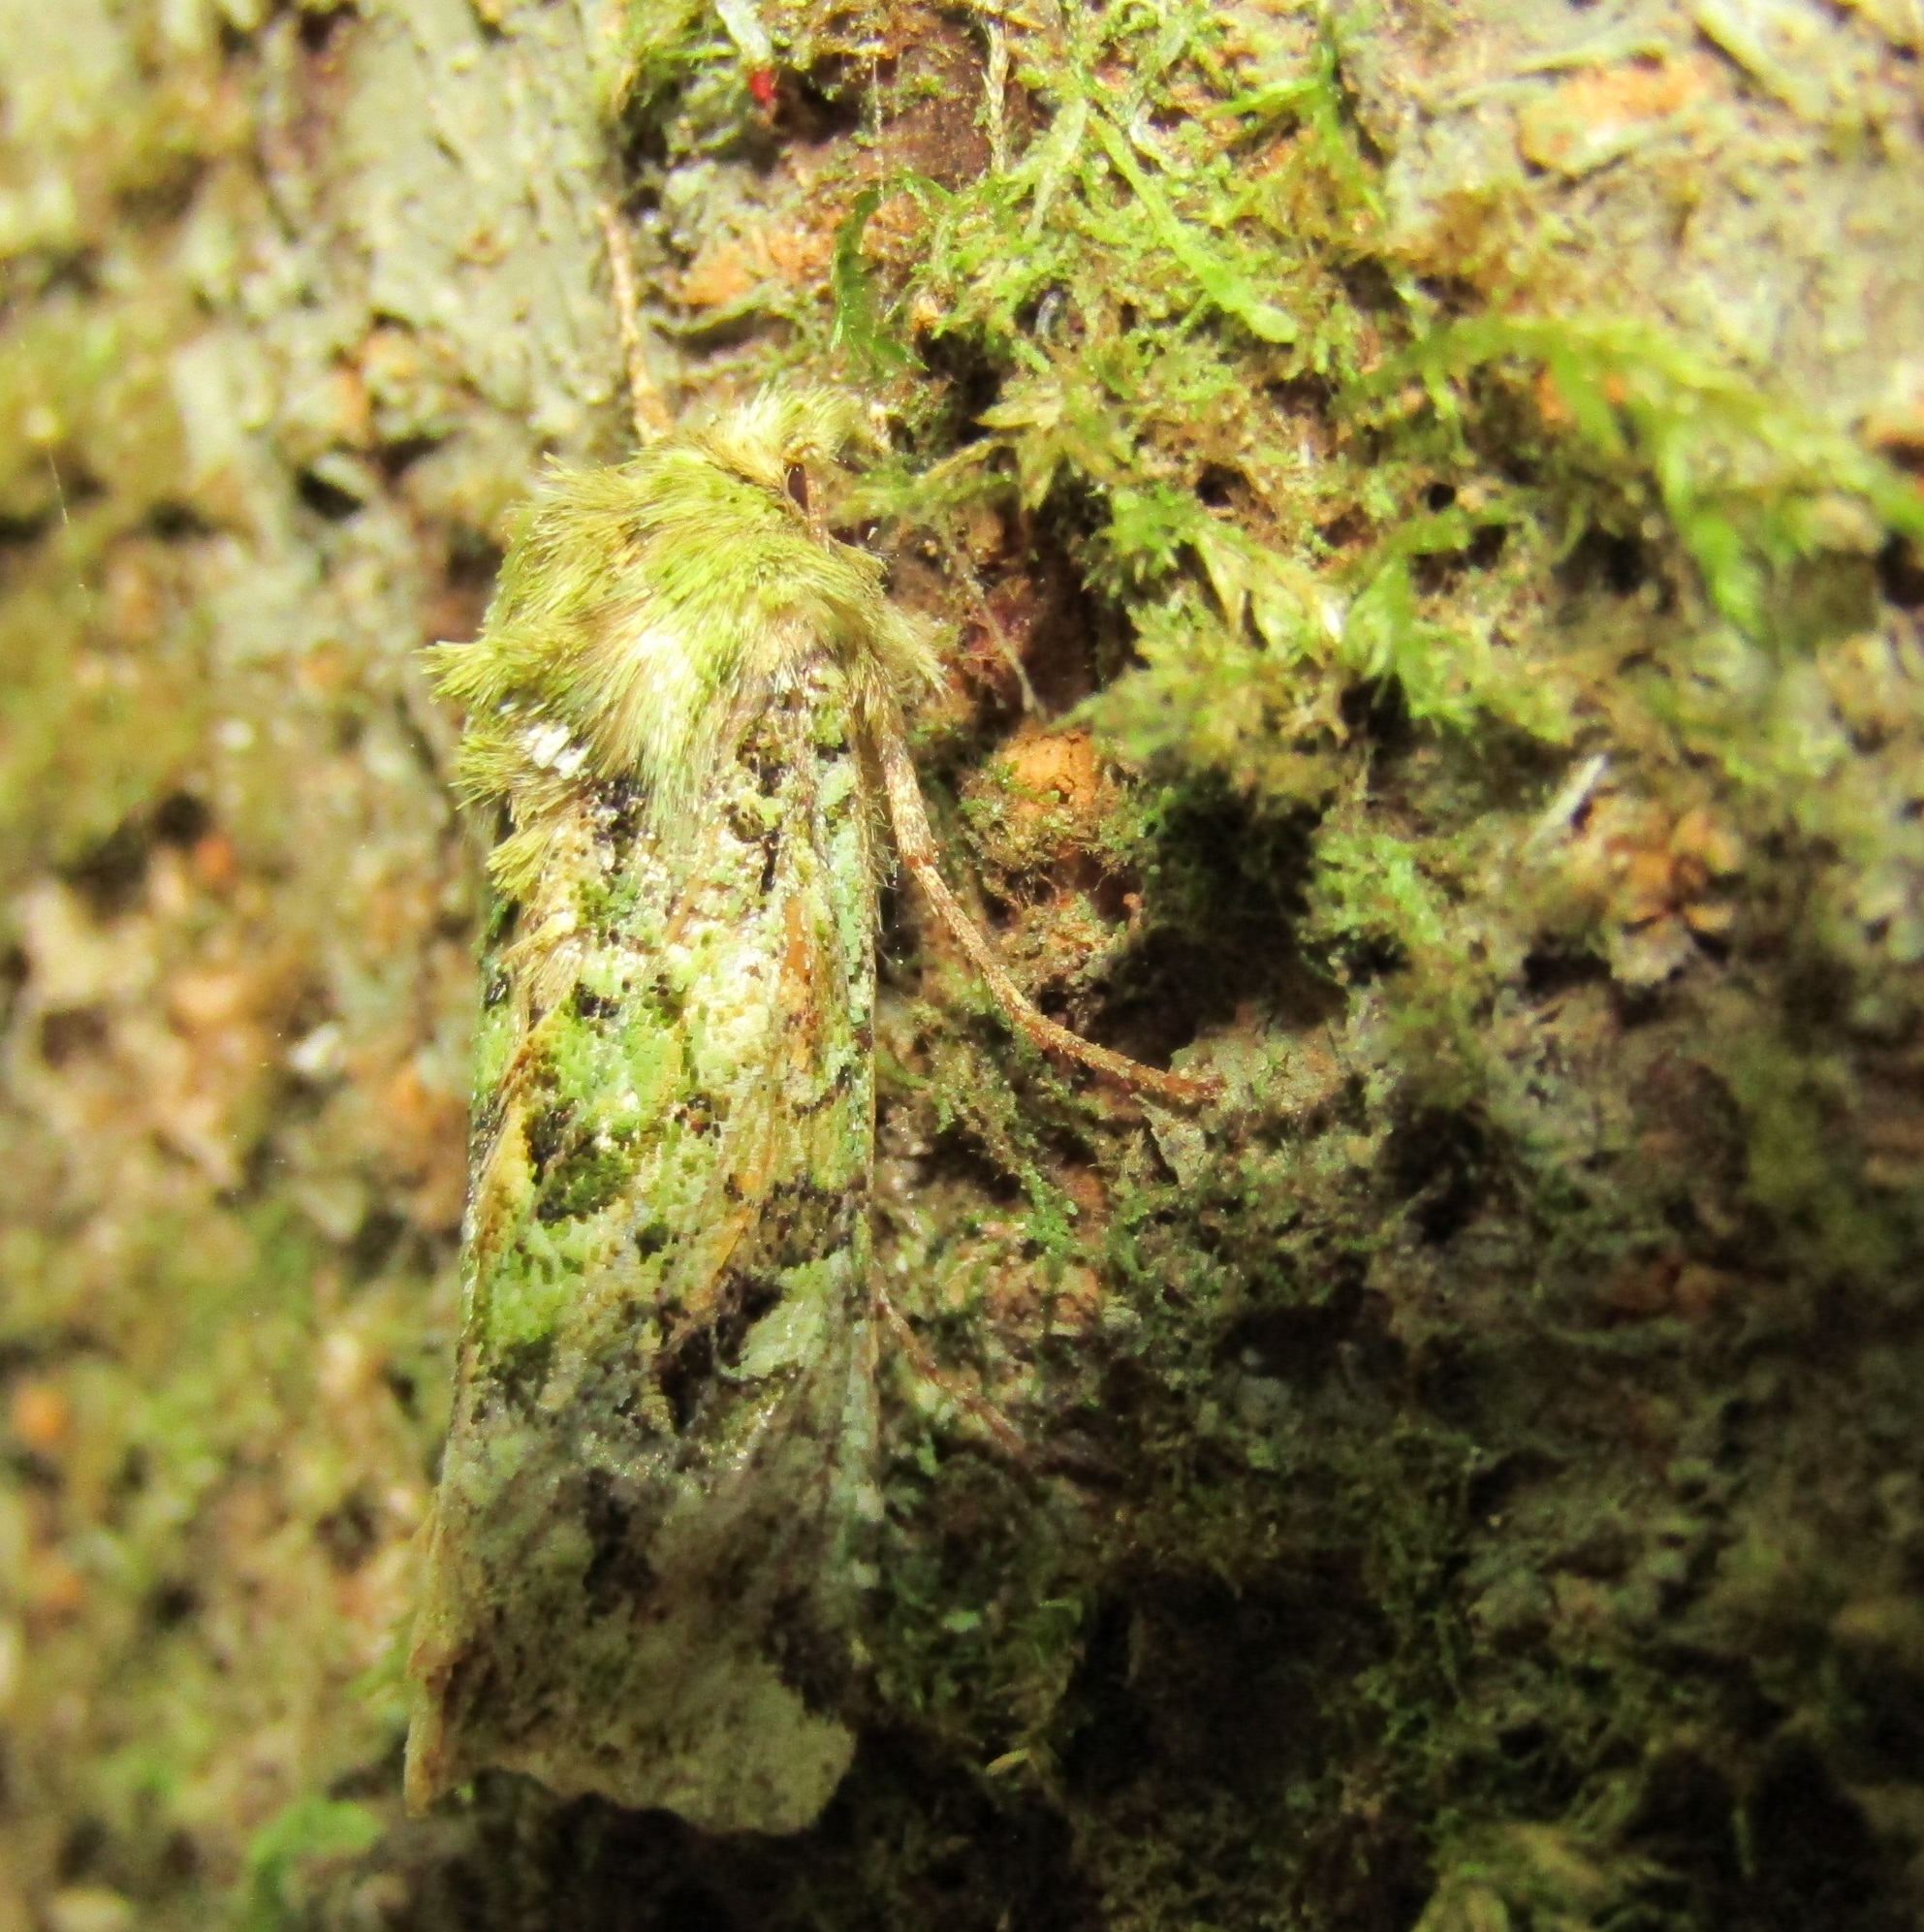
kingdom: Animalia
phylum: Arthropoda
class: Insecta
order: Lepidoptera
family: Noctuidae
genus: Feredayia
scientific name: Feredayia grammosa
